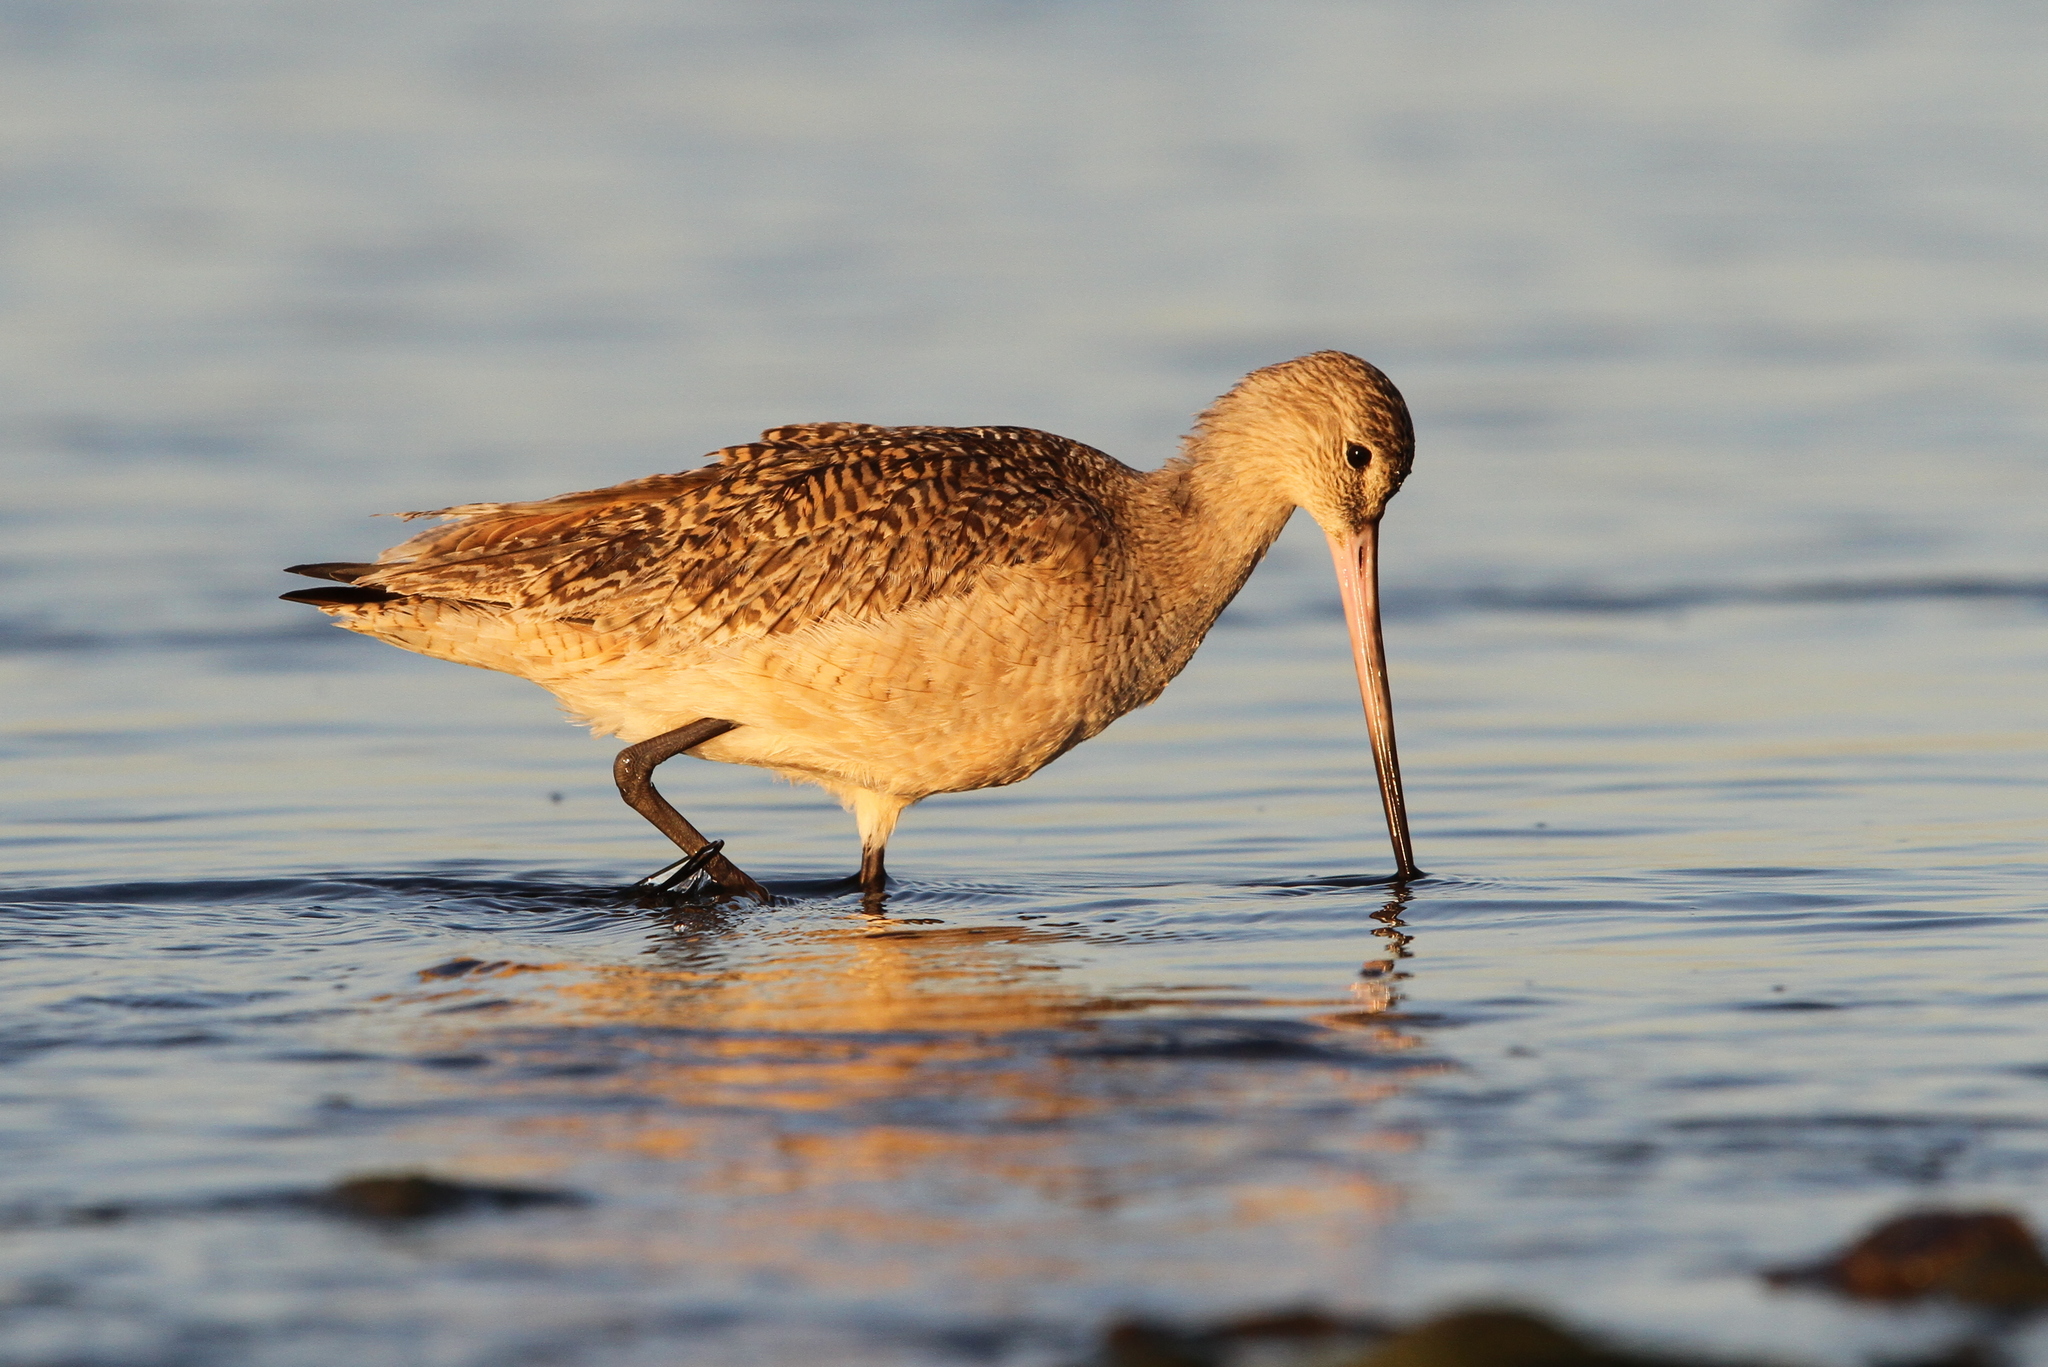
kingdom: Animalia
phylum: Chordata
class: Aves
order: Charadriiformes
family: Scolopacidae
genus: Limosa
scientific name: Limosa fedoa
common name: Marbled godwit
